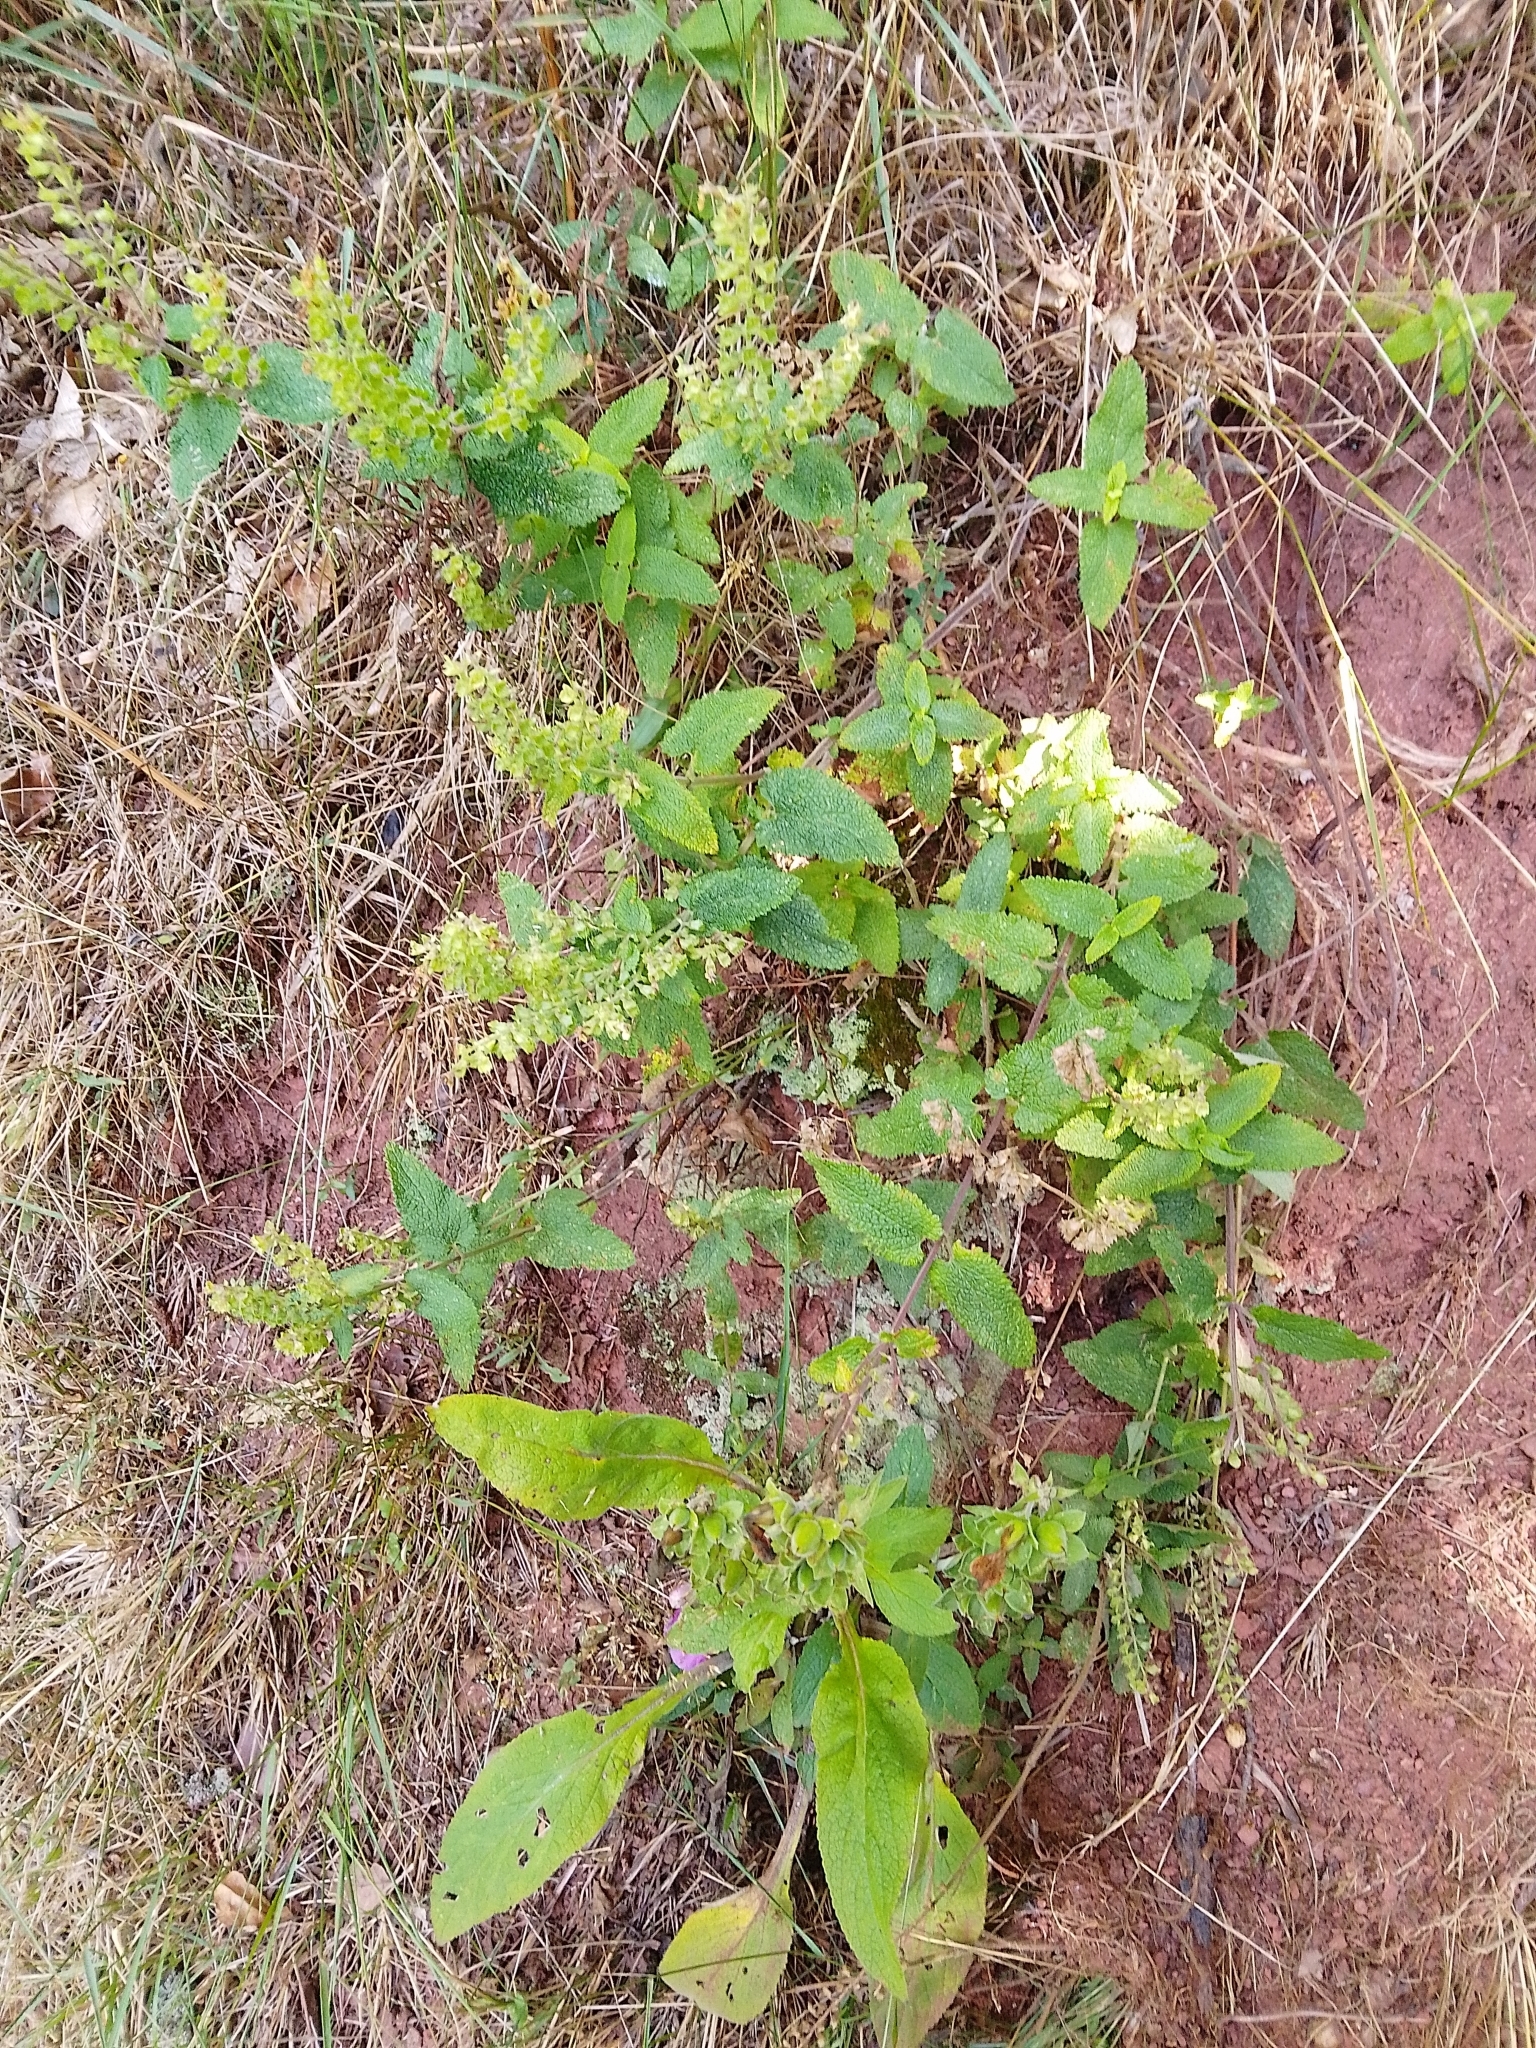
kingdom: Plantae
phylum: Tracheophyta
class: Magnoliopsida
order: Lamiales
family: Lamiaceae
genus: Teucrium
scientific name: Teucrium scorodonia
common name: Woodland germander
